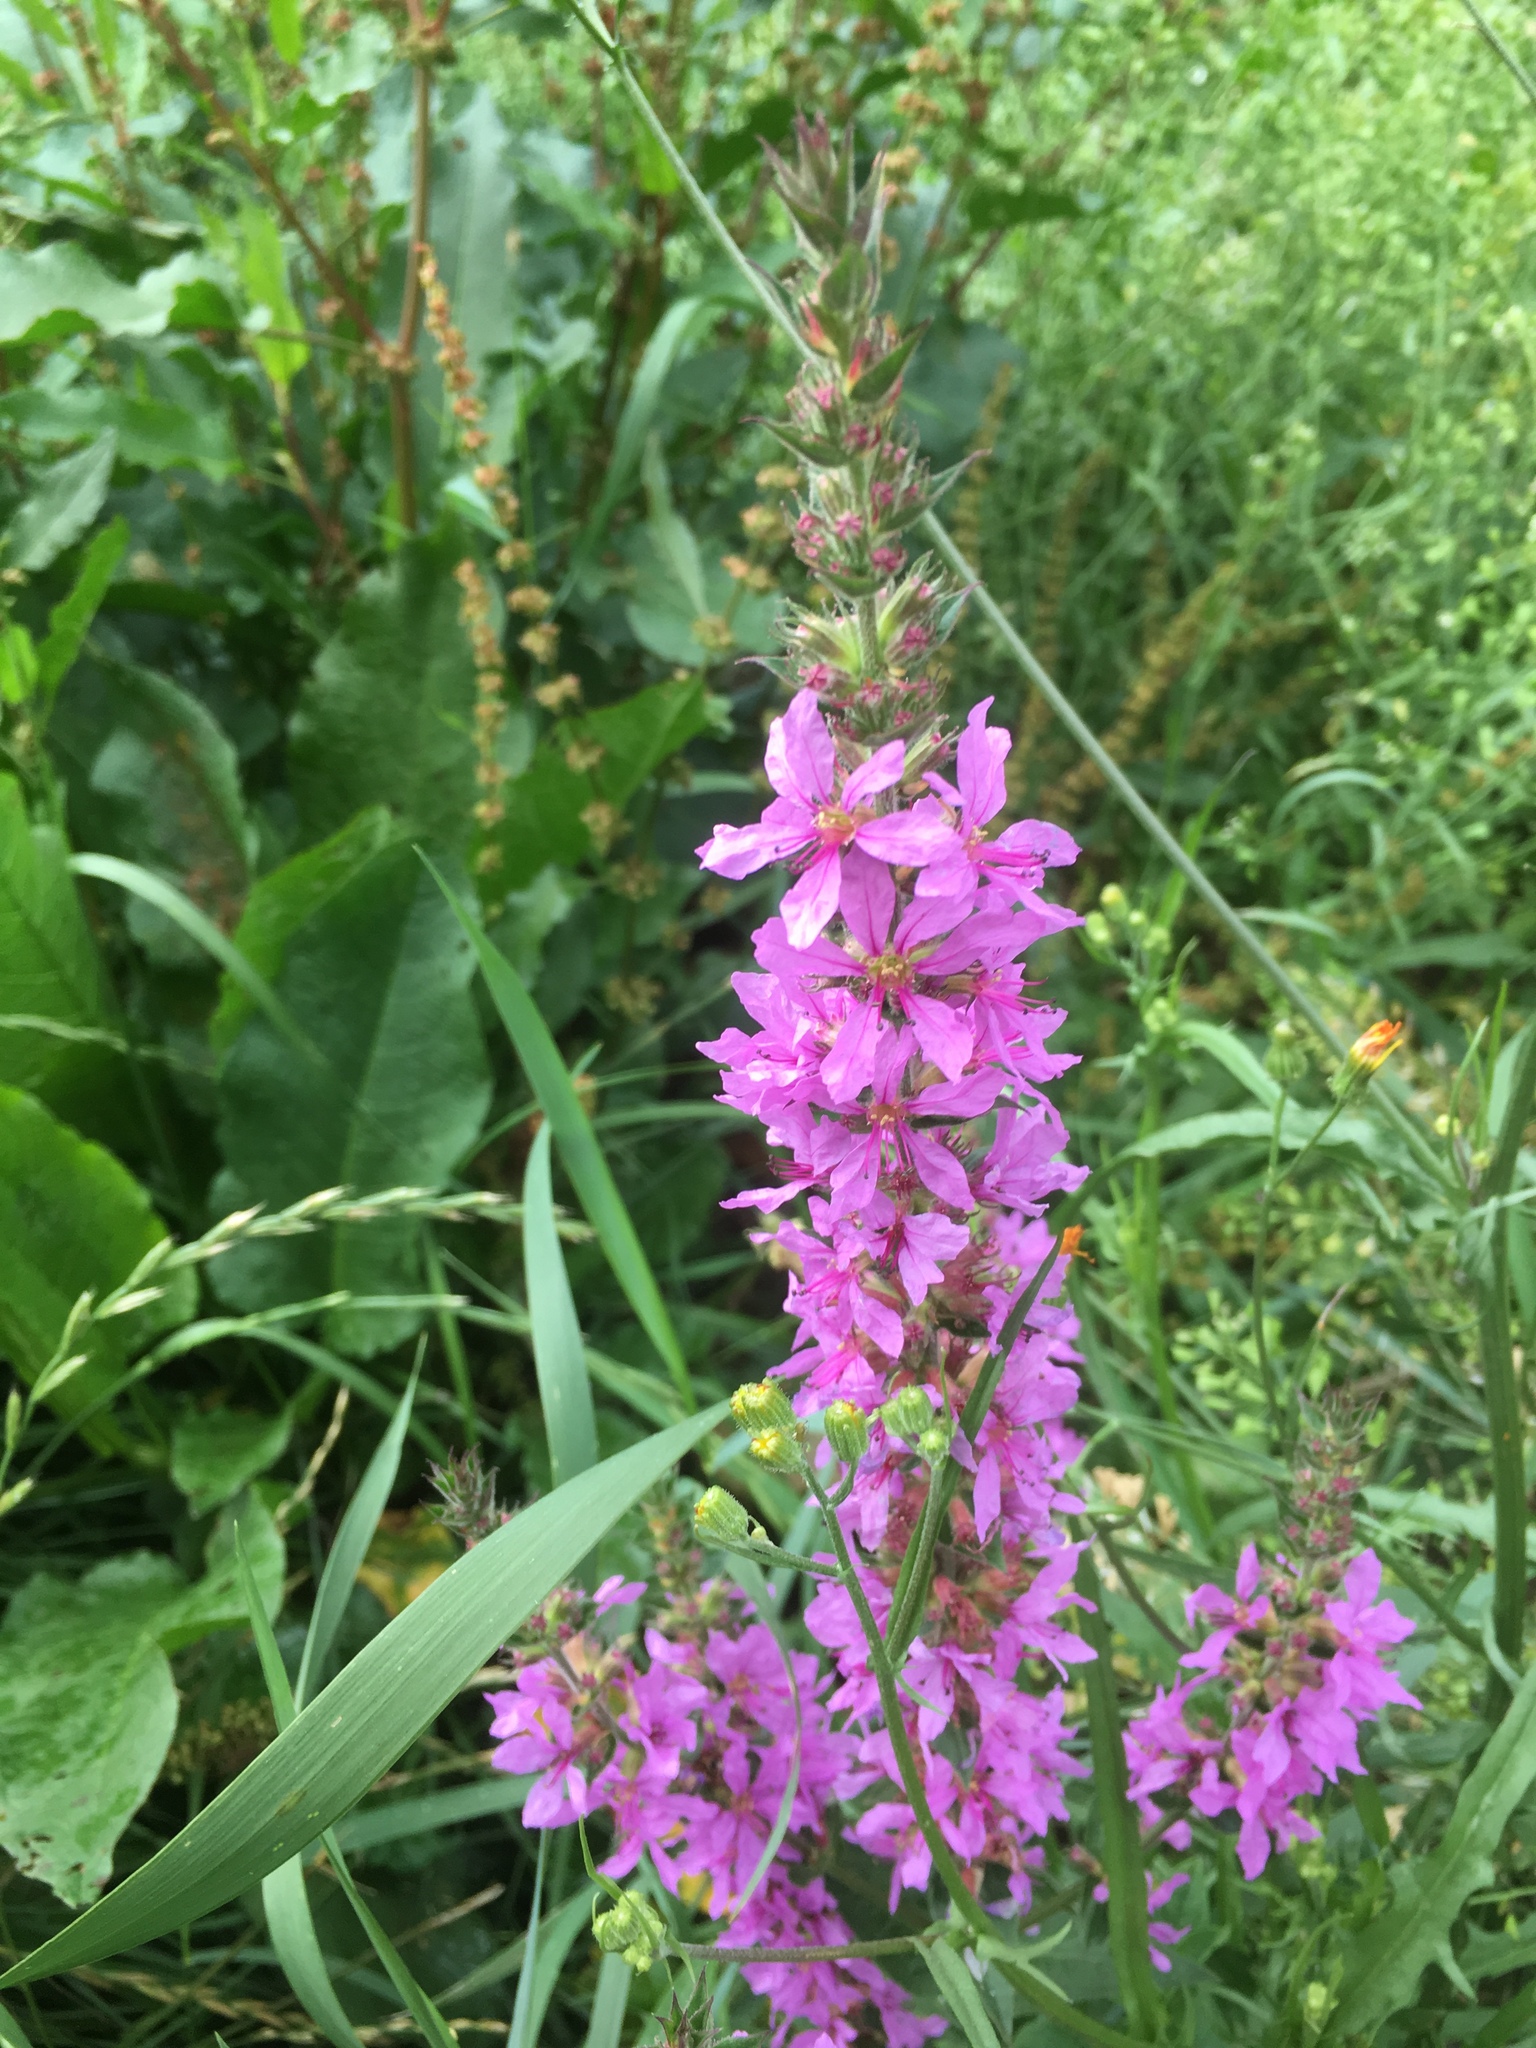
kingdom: Plantae
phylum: Tracheophyta
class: Magnoliopsida
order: Myrtales
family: Lythraceae
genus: Lythrum
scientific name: Lythrum salicaria
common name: Purple loosestrife
